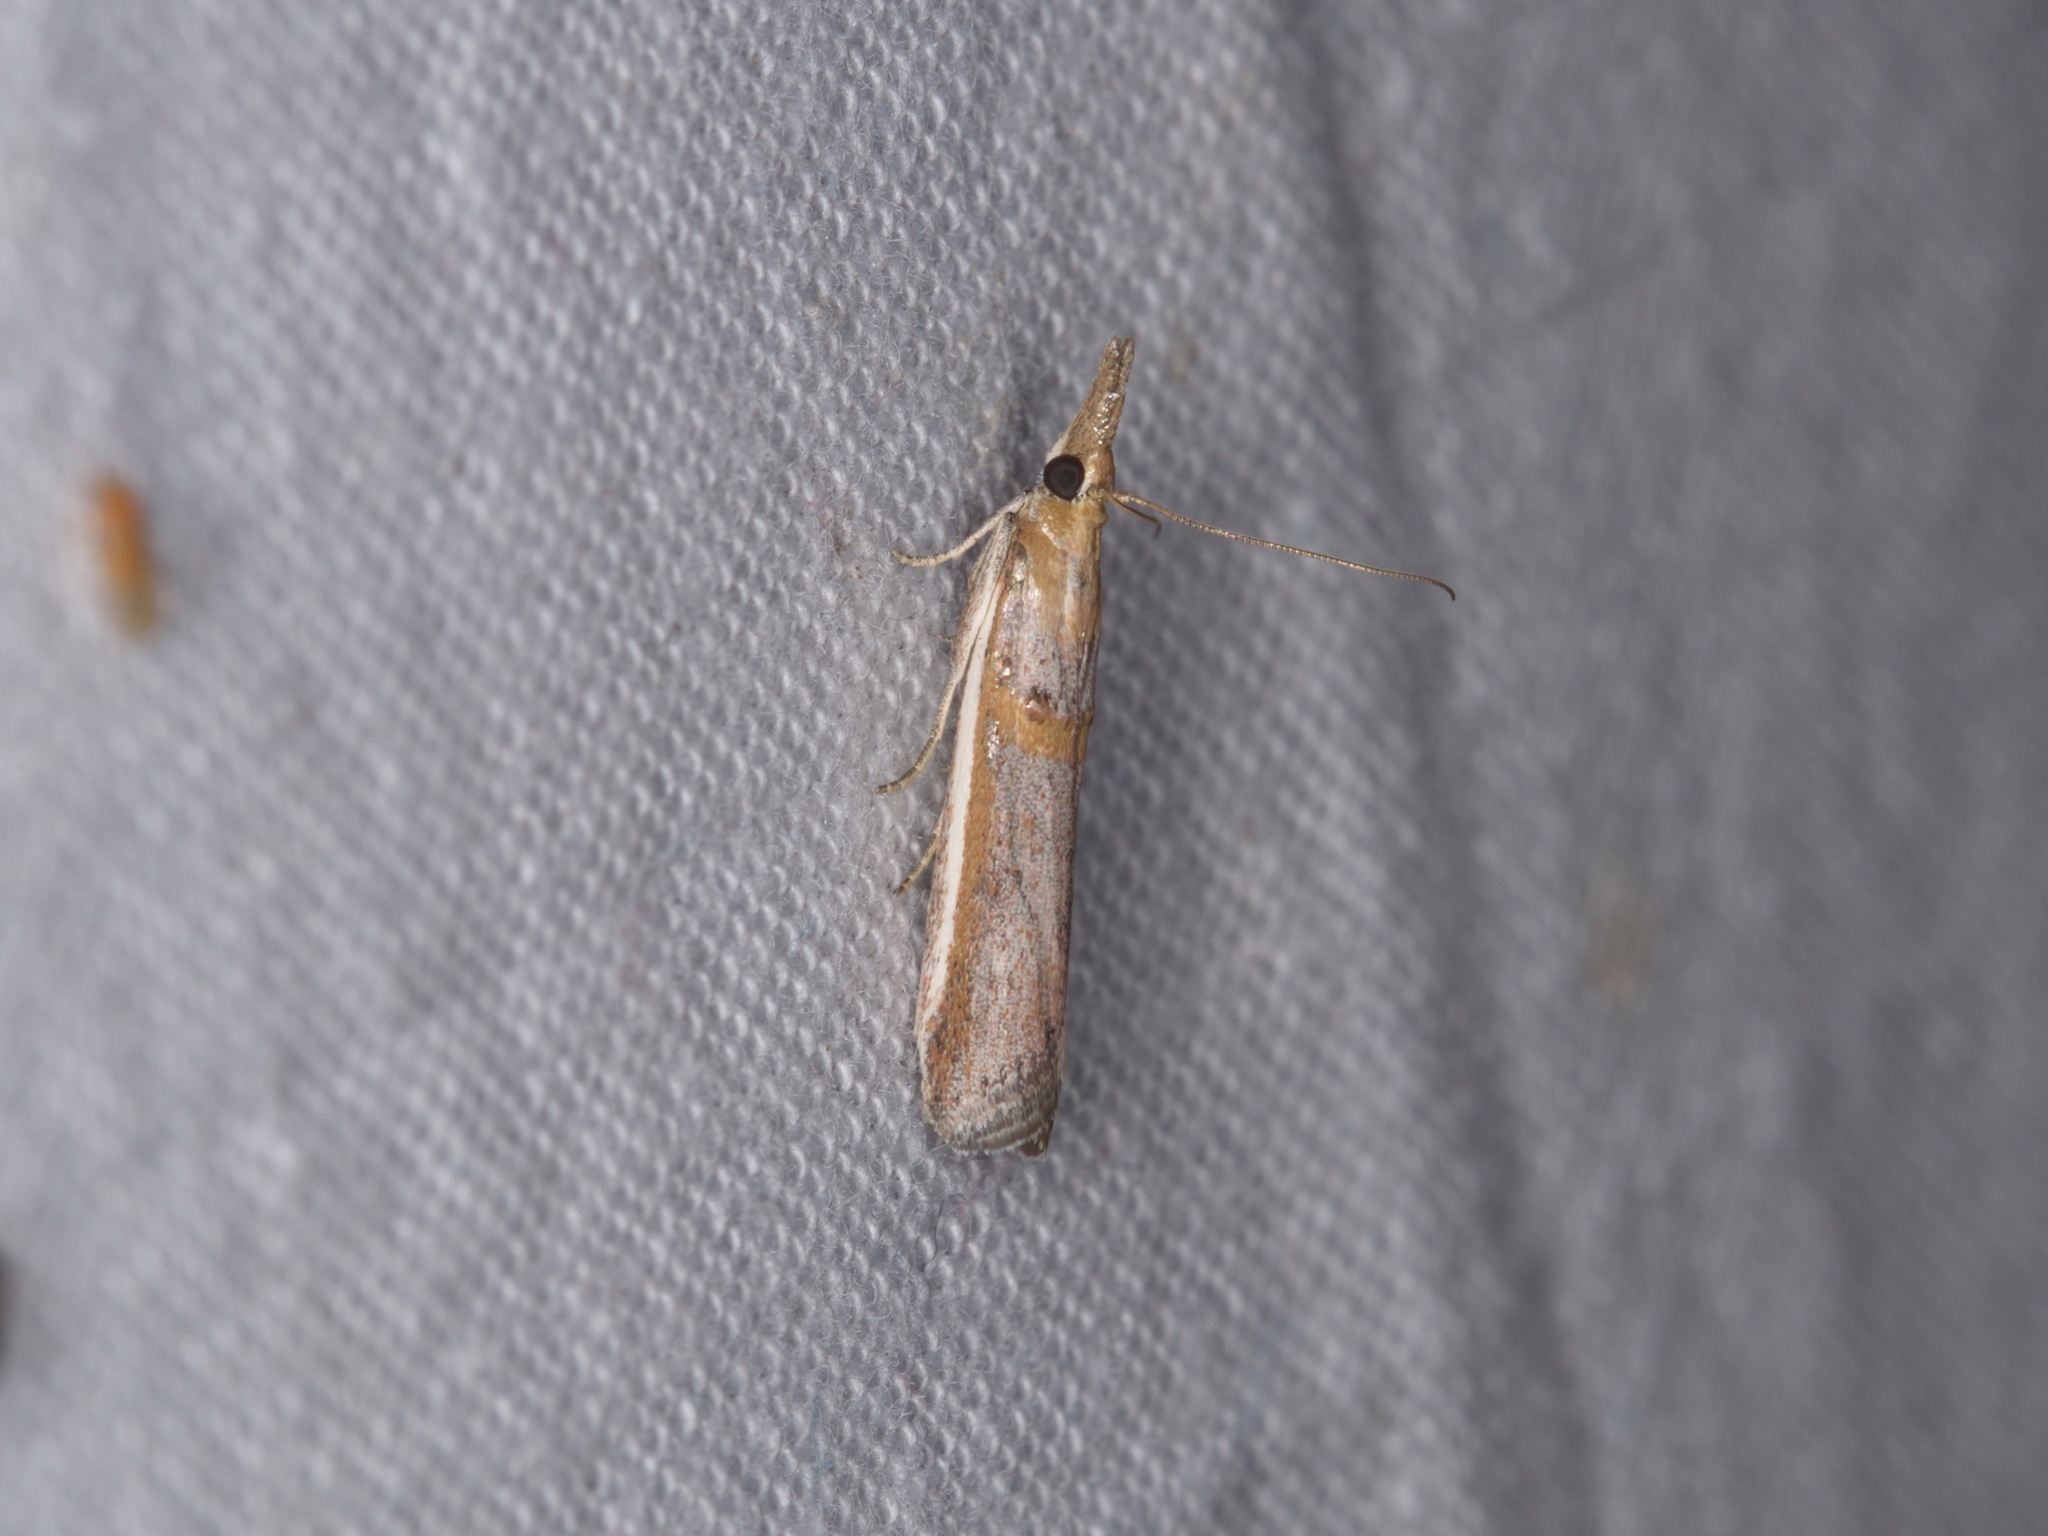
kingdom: Animalia
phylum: Arthropoda
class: Insecta
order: Lepidoptera
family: Pyralidae
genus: Etiella
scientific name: Etiella behrii
